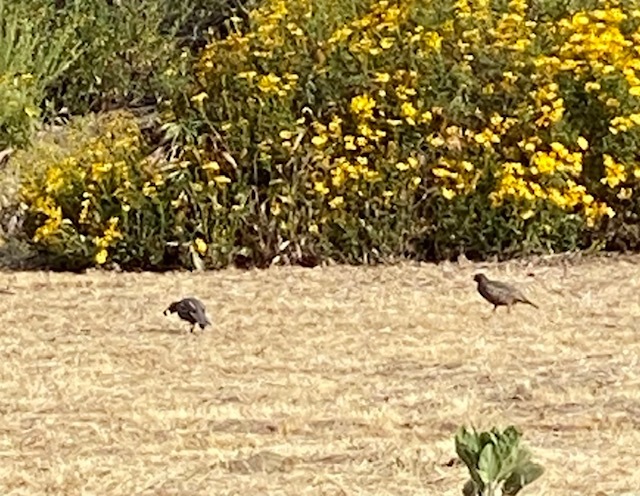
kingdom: Animalia
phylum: Chordata
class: Aves
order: Galliformes
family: Odontophoridae
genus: Callipepla
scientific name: Callipepla californica
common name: California quail
